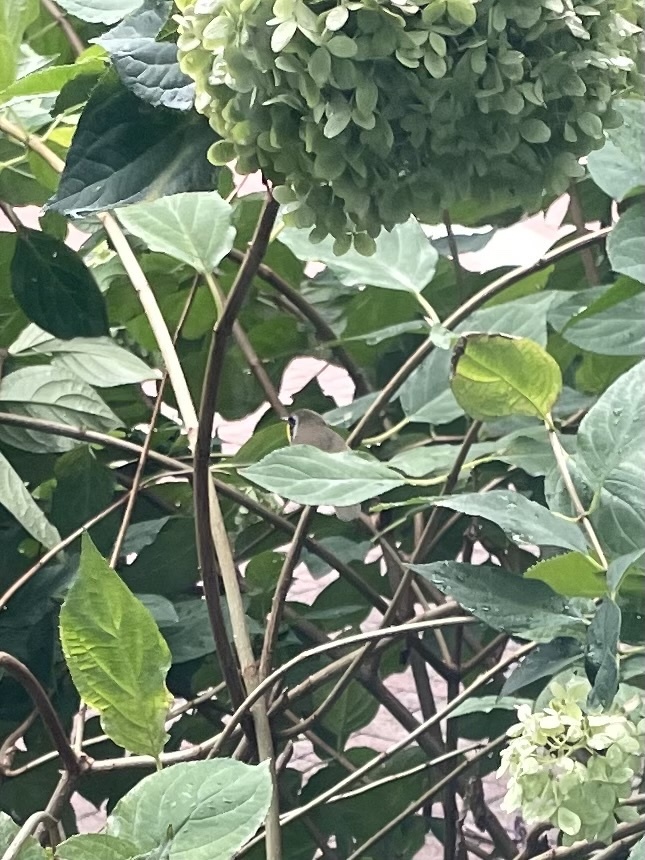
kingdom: Animalia
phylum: Chordata
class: Aves
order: Passeriformes
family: Parulidae
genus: Geothlypis
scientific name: Geothlypis trichas
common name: Common yellowthroat
